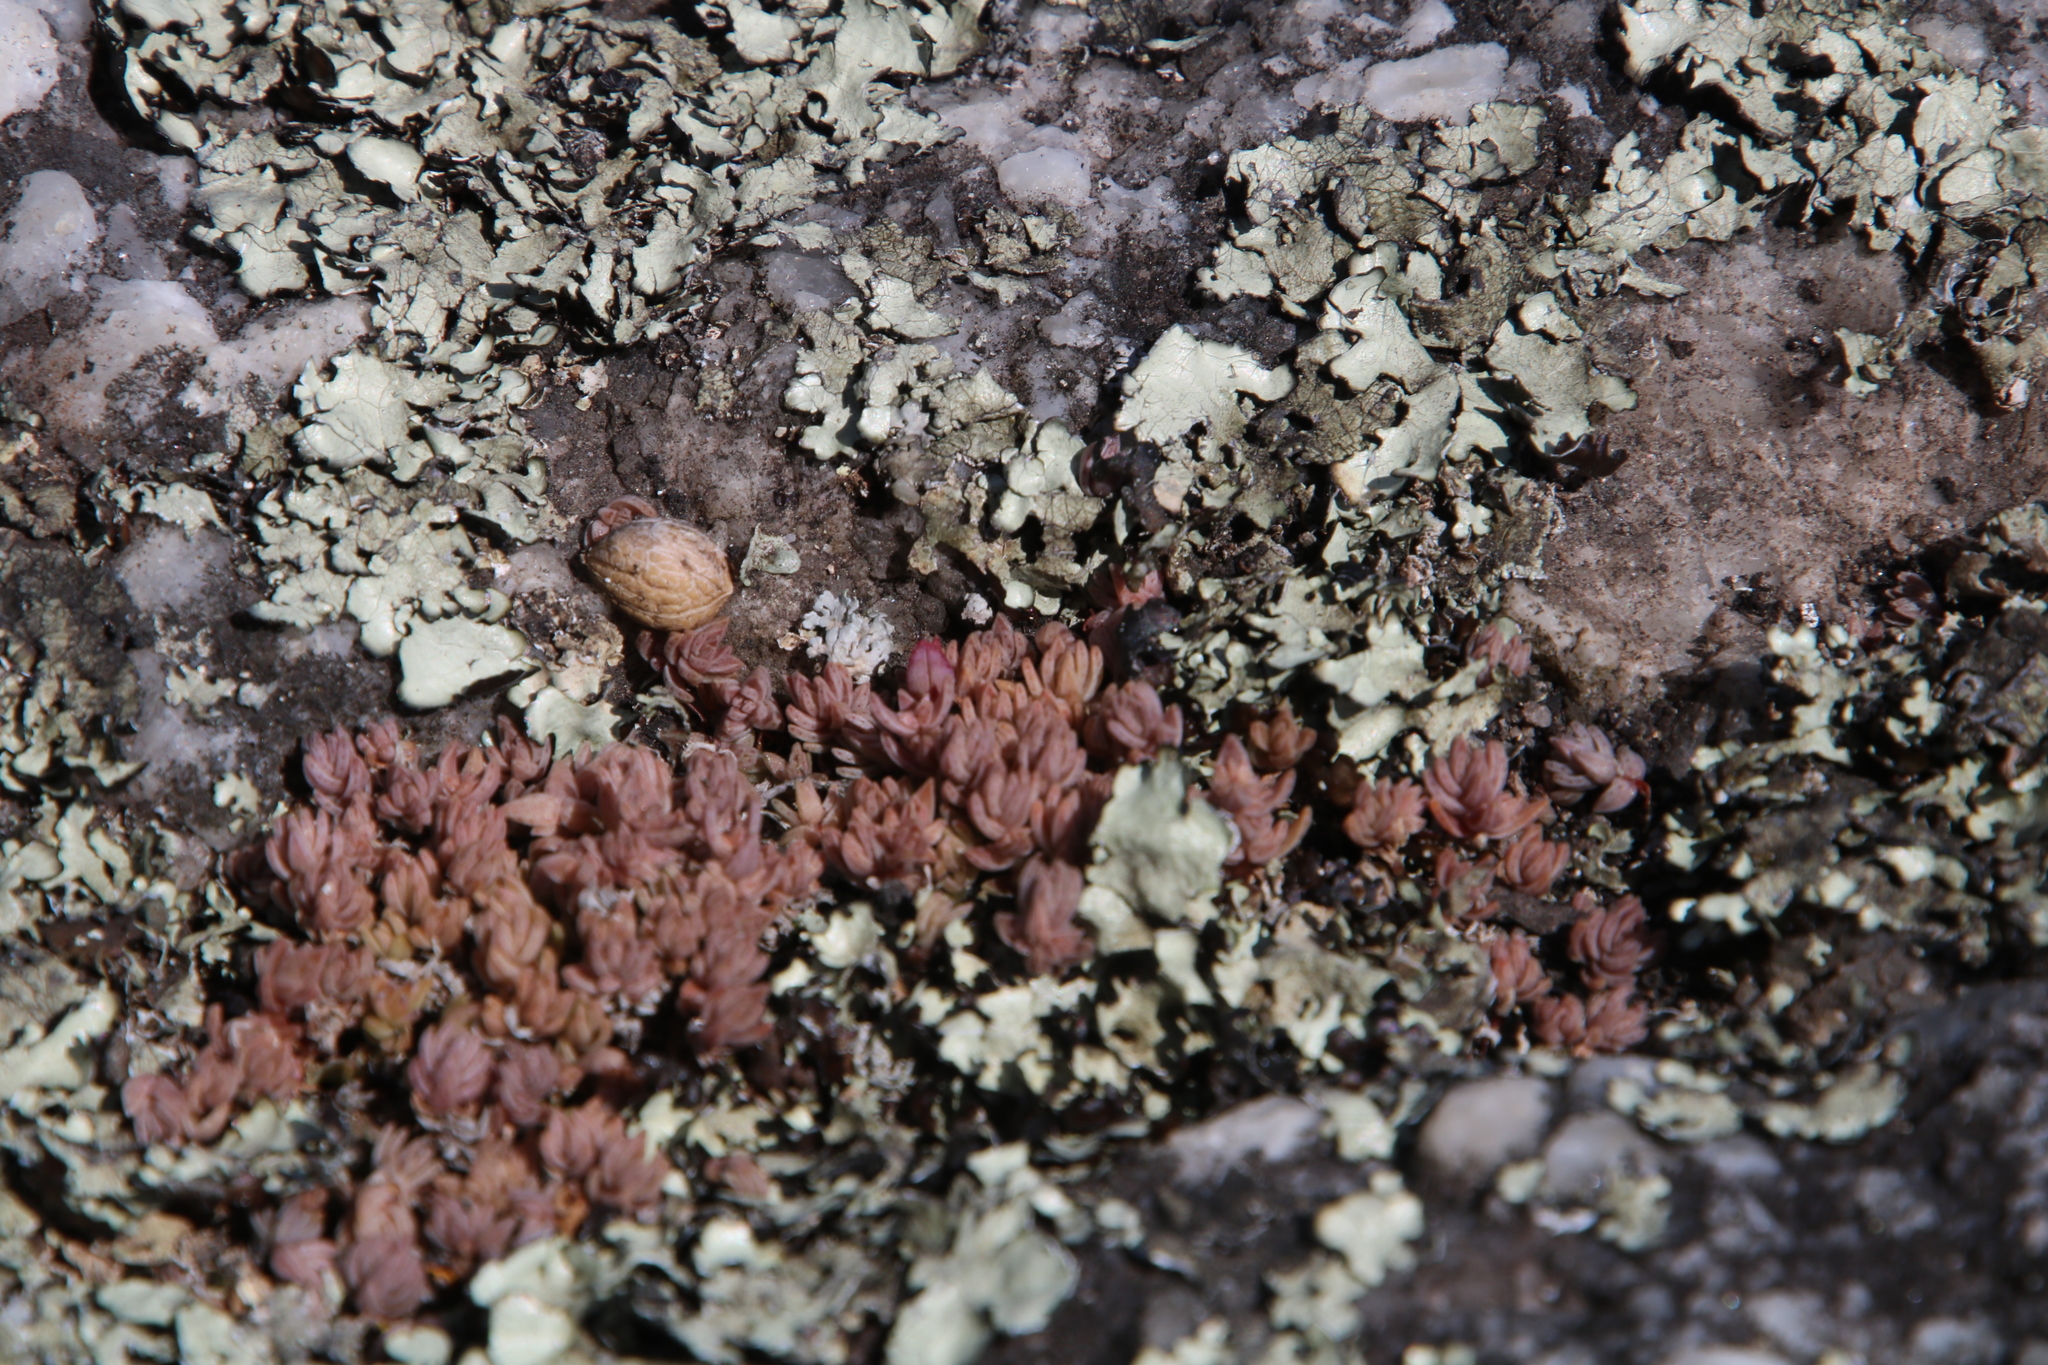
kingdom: Plantae
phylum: Tracheophyta
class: Magnoliopsida
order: Saxifragales
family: Crassulaceae
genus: Crassula
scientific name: Crassula lanceolata
